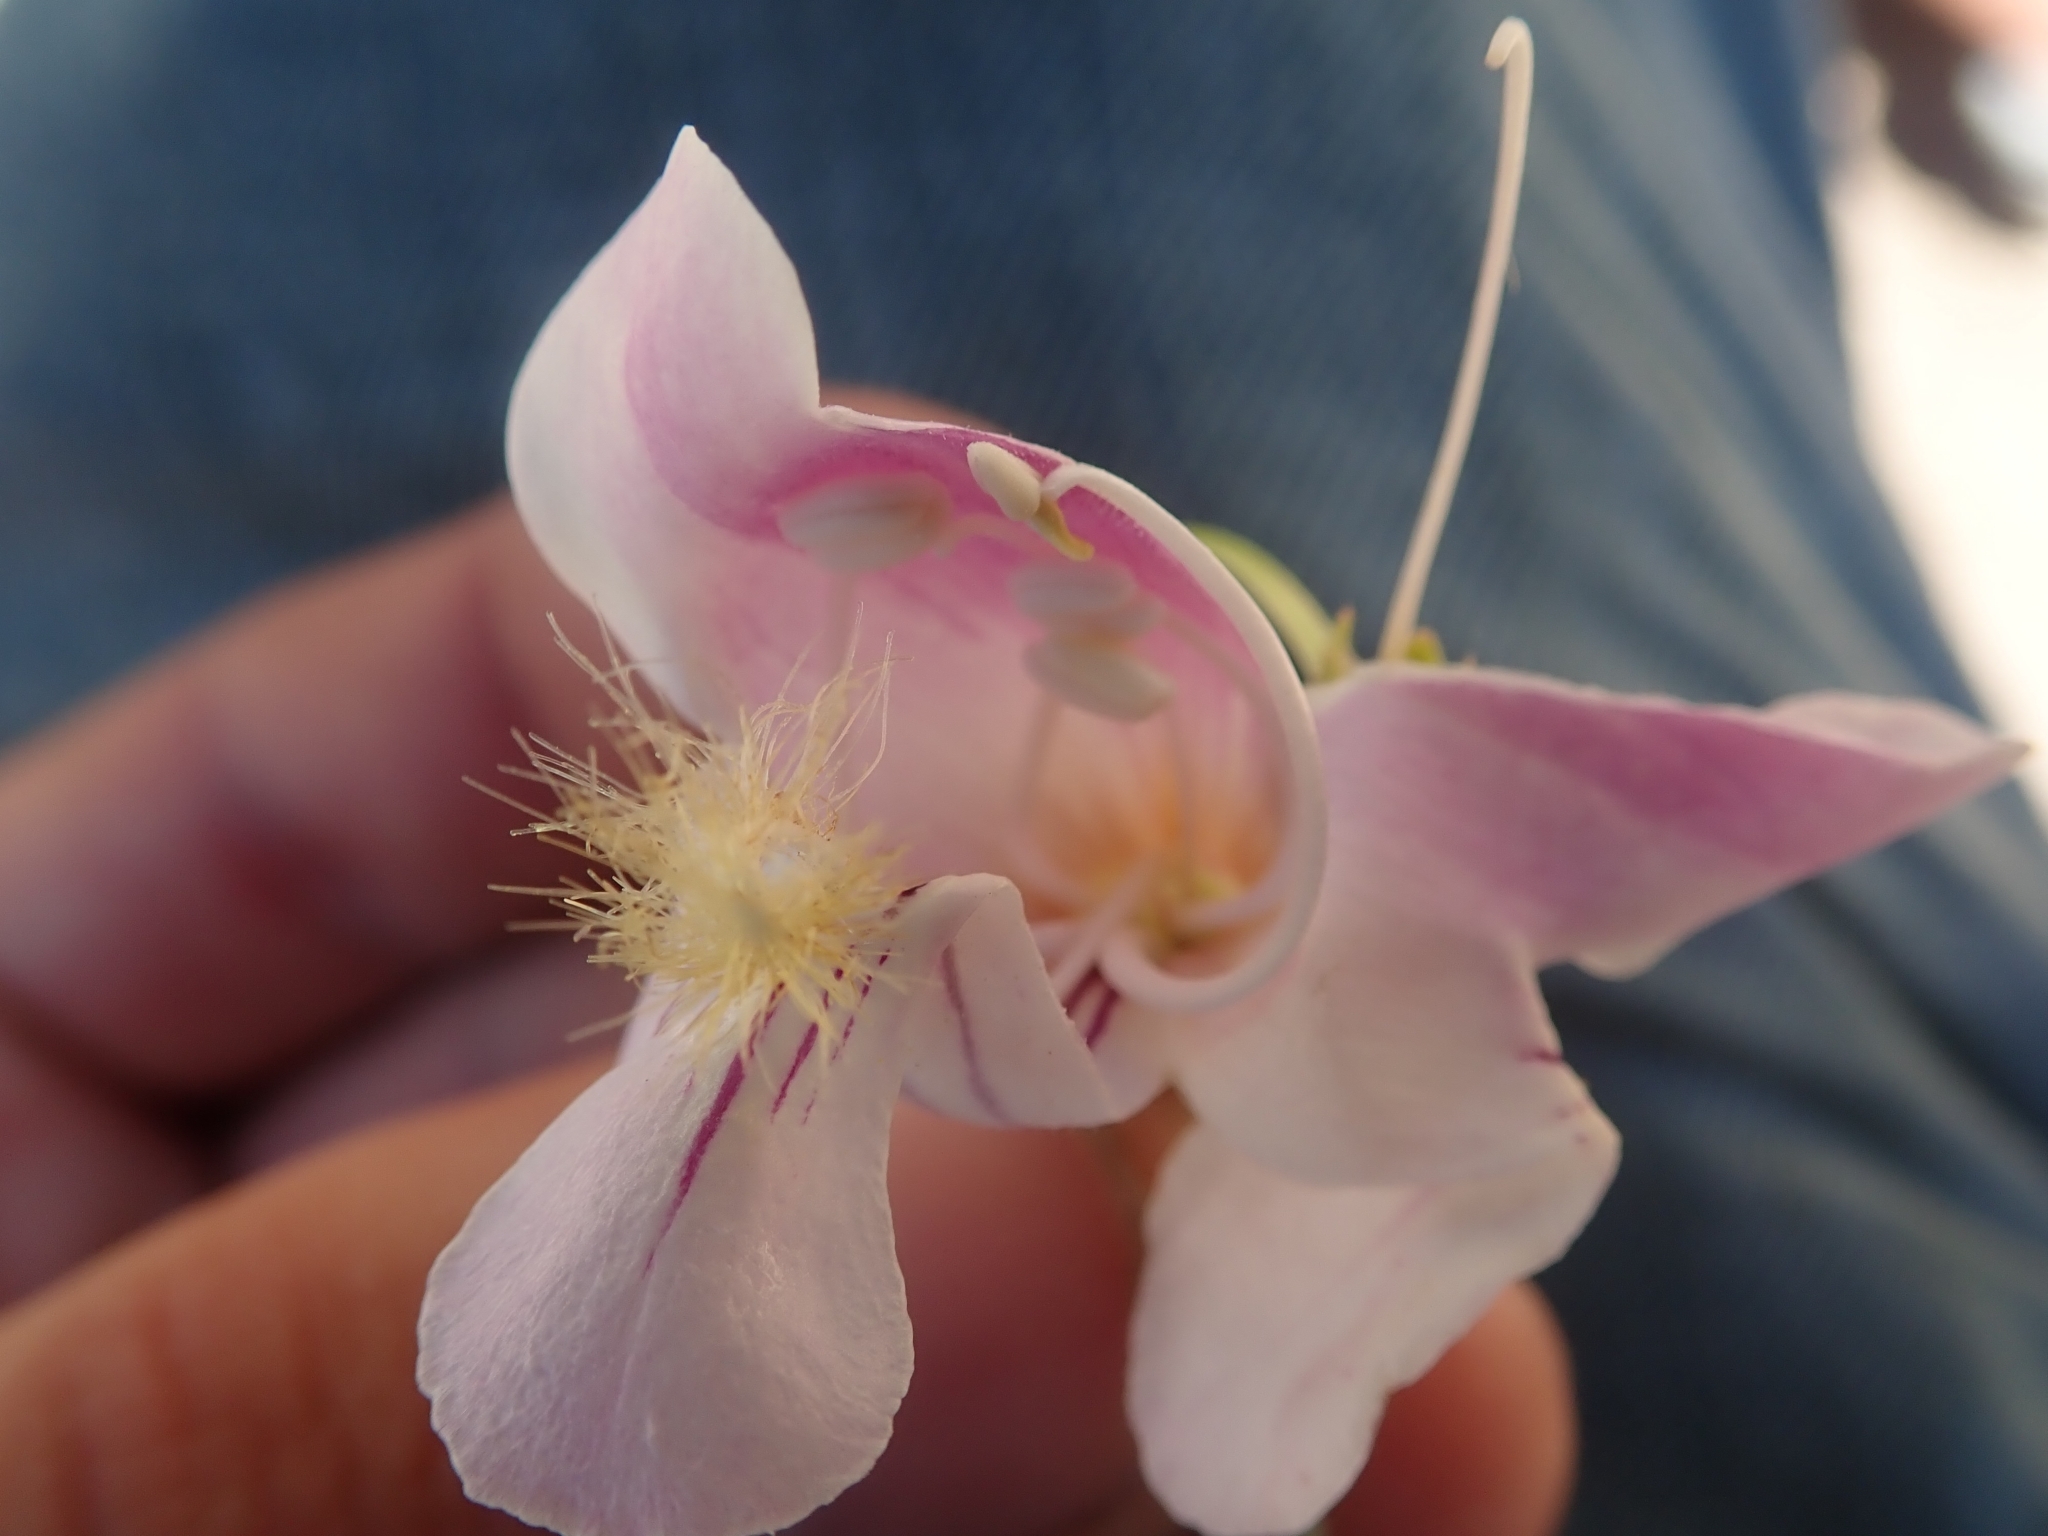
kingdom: Plantae
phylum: Tracheophyta
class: Magnoliopsida
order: Lamiales
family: Plantaginaceae
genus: Penstemon
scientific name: Penstemon palmeri
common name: Palmer penstemon
